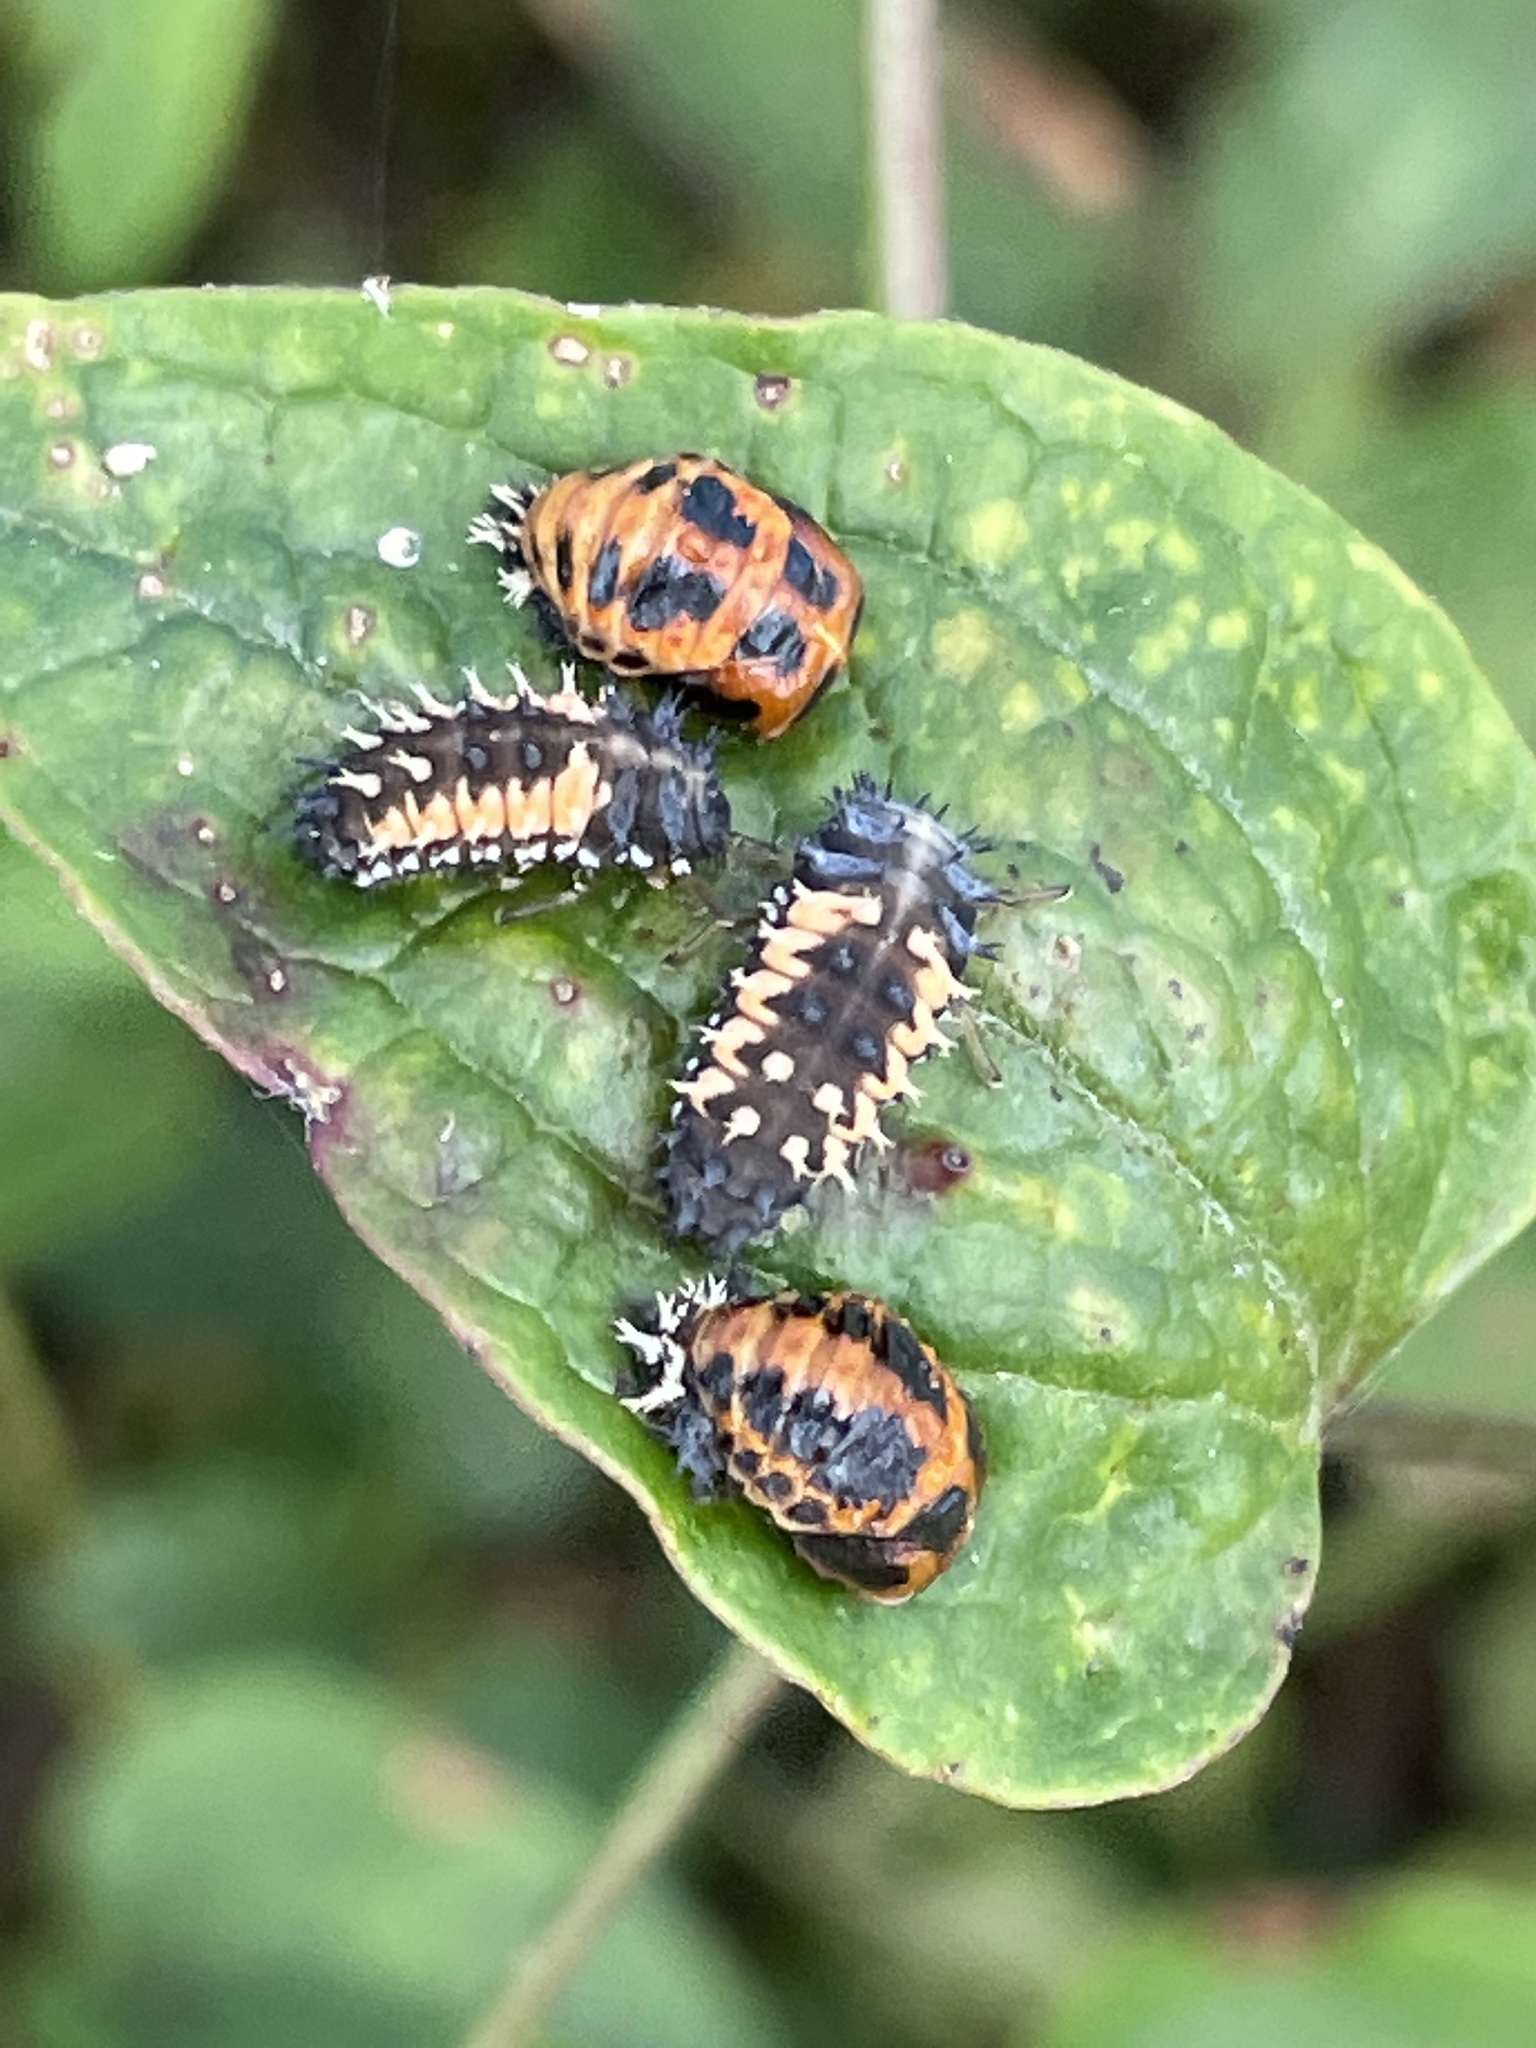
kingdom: Animalia
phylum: Arthropoda
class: Insecta
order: Coleoptera
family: Coccinellidae
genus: Harmonia
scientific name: Harmonia axyridis
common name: Harlequin ladybird
